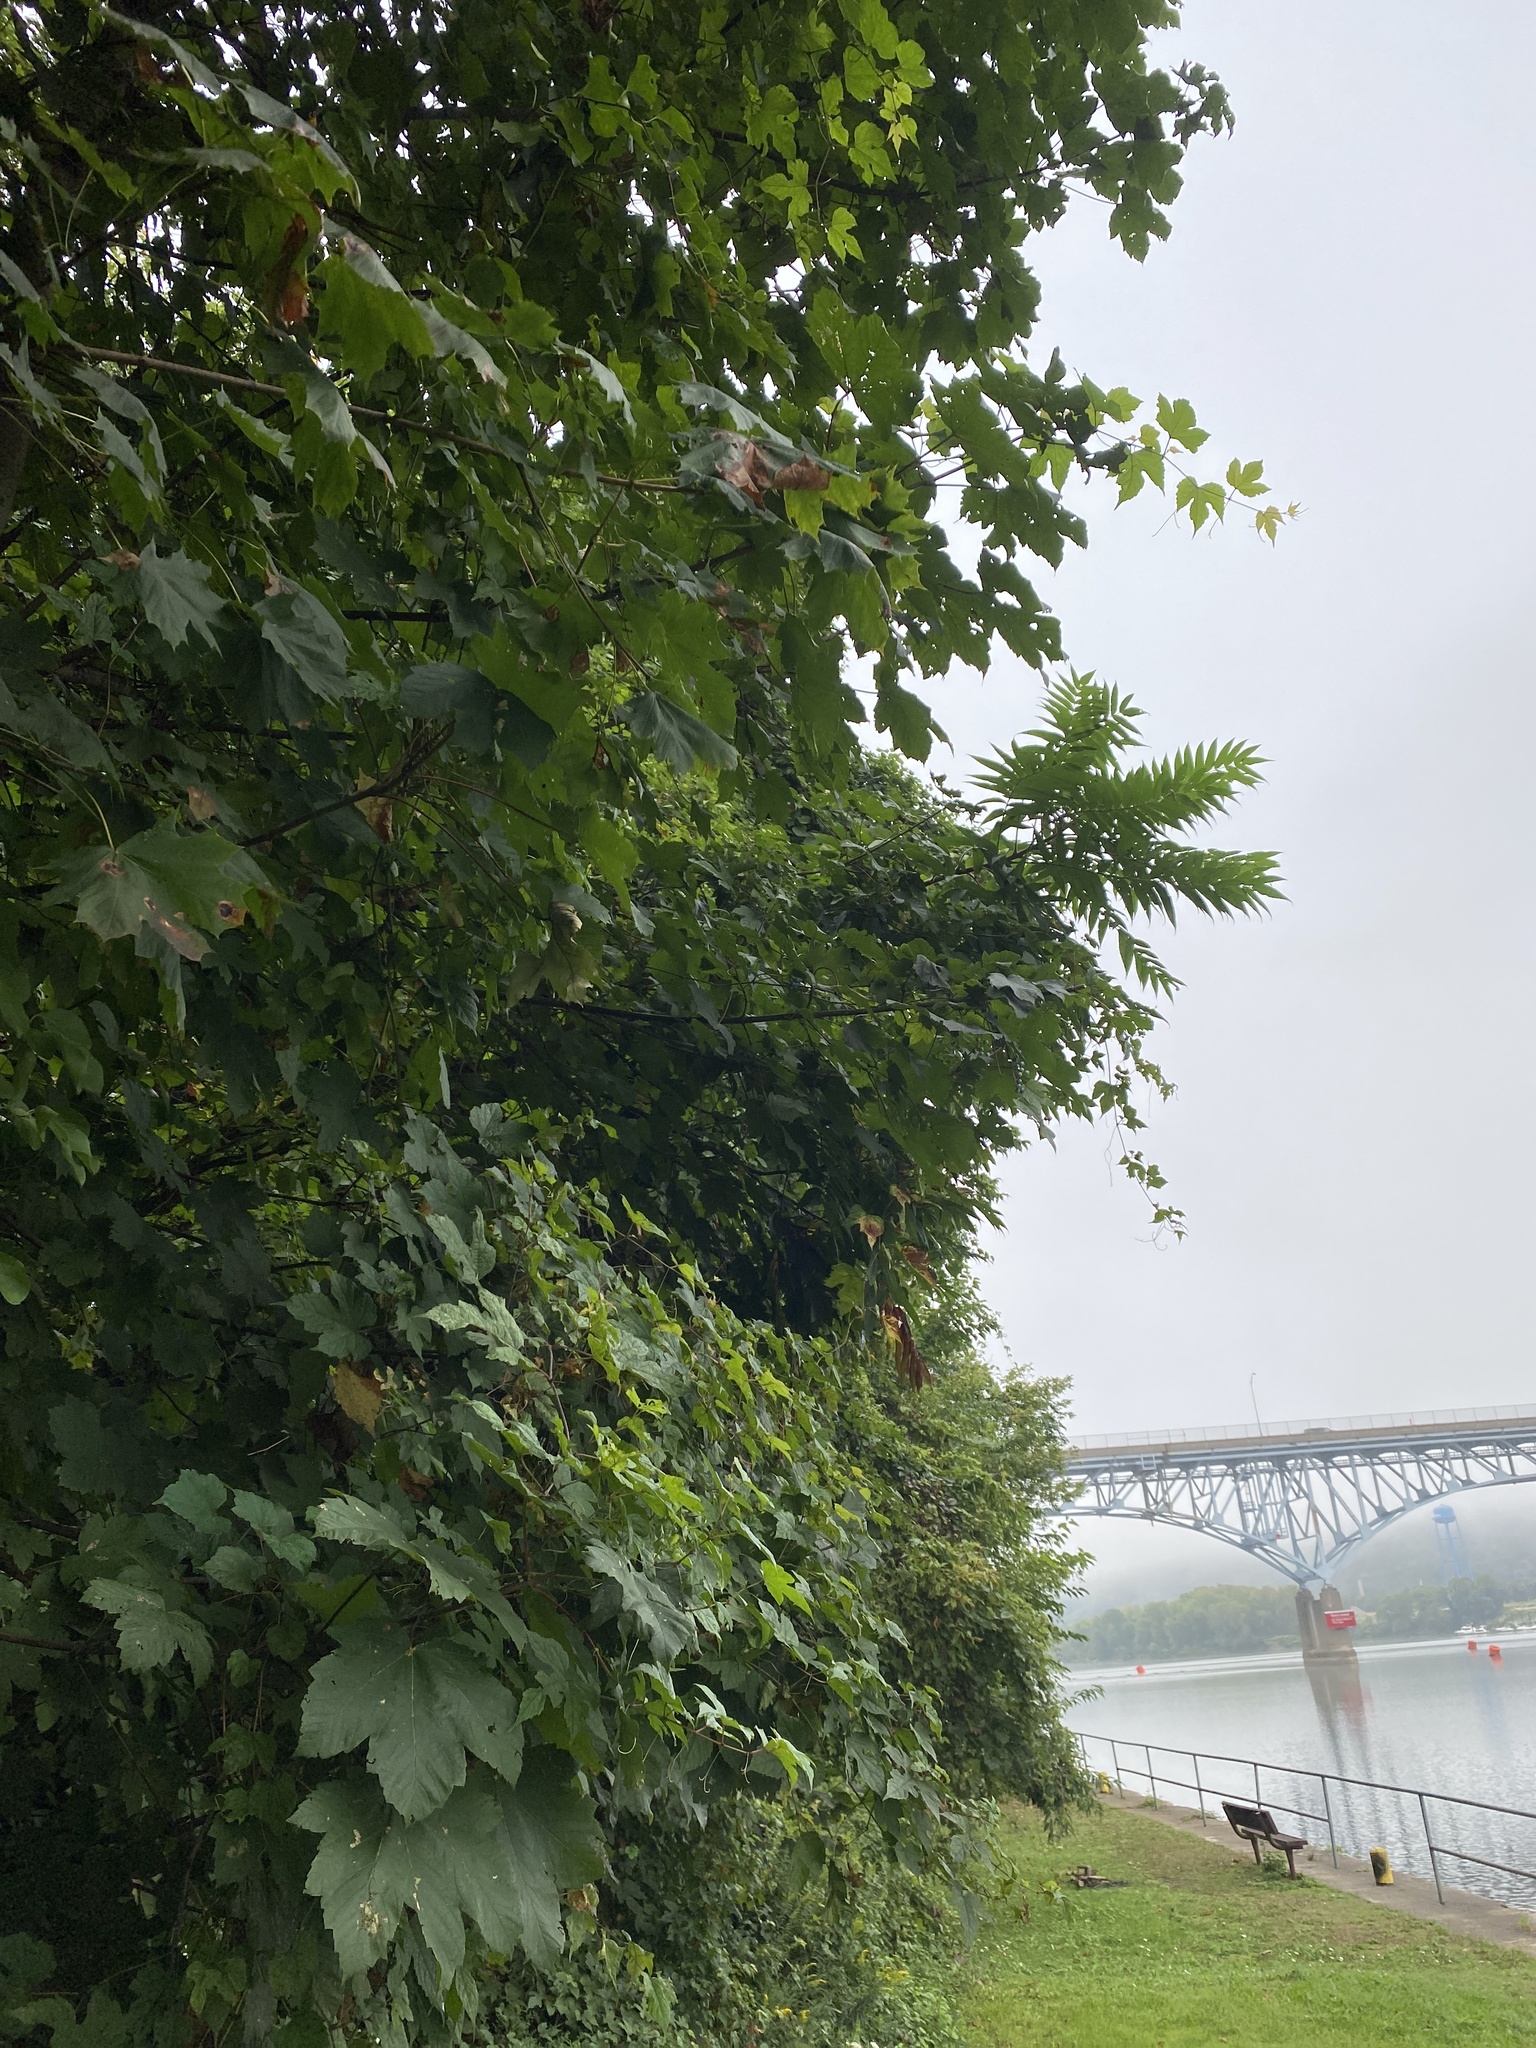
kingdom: Plantae
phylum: Tracheophyta
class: Magnoliopsida
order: Sapindales
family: Sapindaceae
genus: Acer
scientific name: Acer pseudoplatanus
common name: Sycamore
